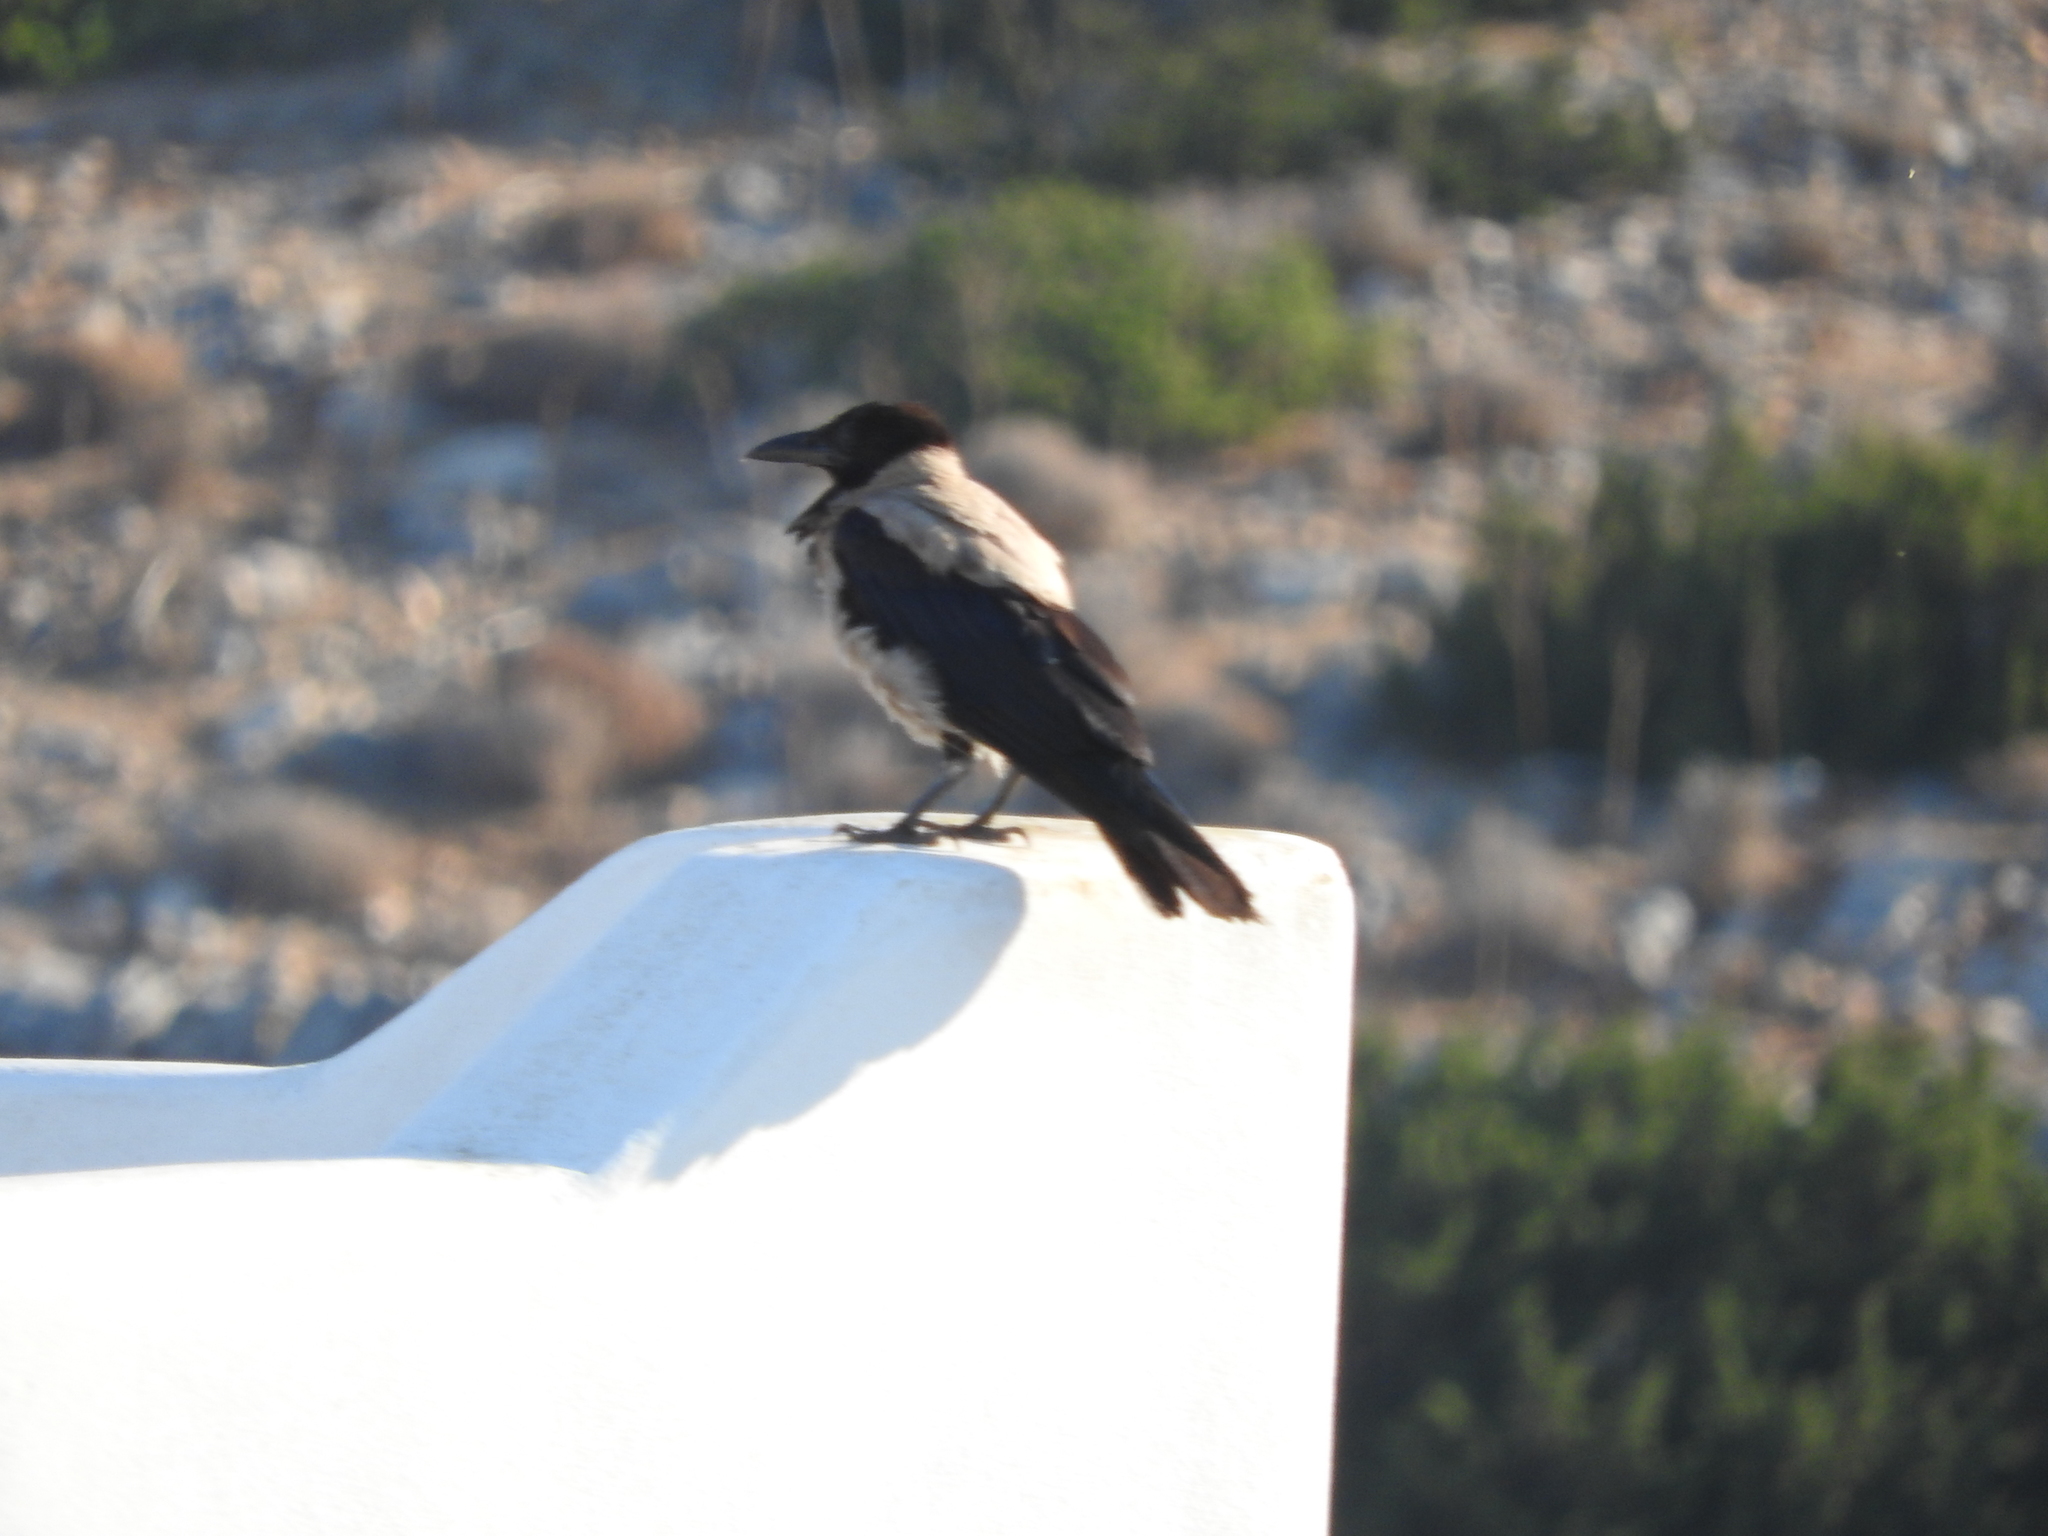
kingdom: Animalia
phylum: Chordata
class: Aves
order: Passeriformes
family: Corvidae
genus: Corvus
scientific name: Corvus cornix
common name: Hooded crow
